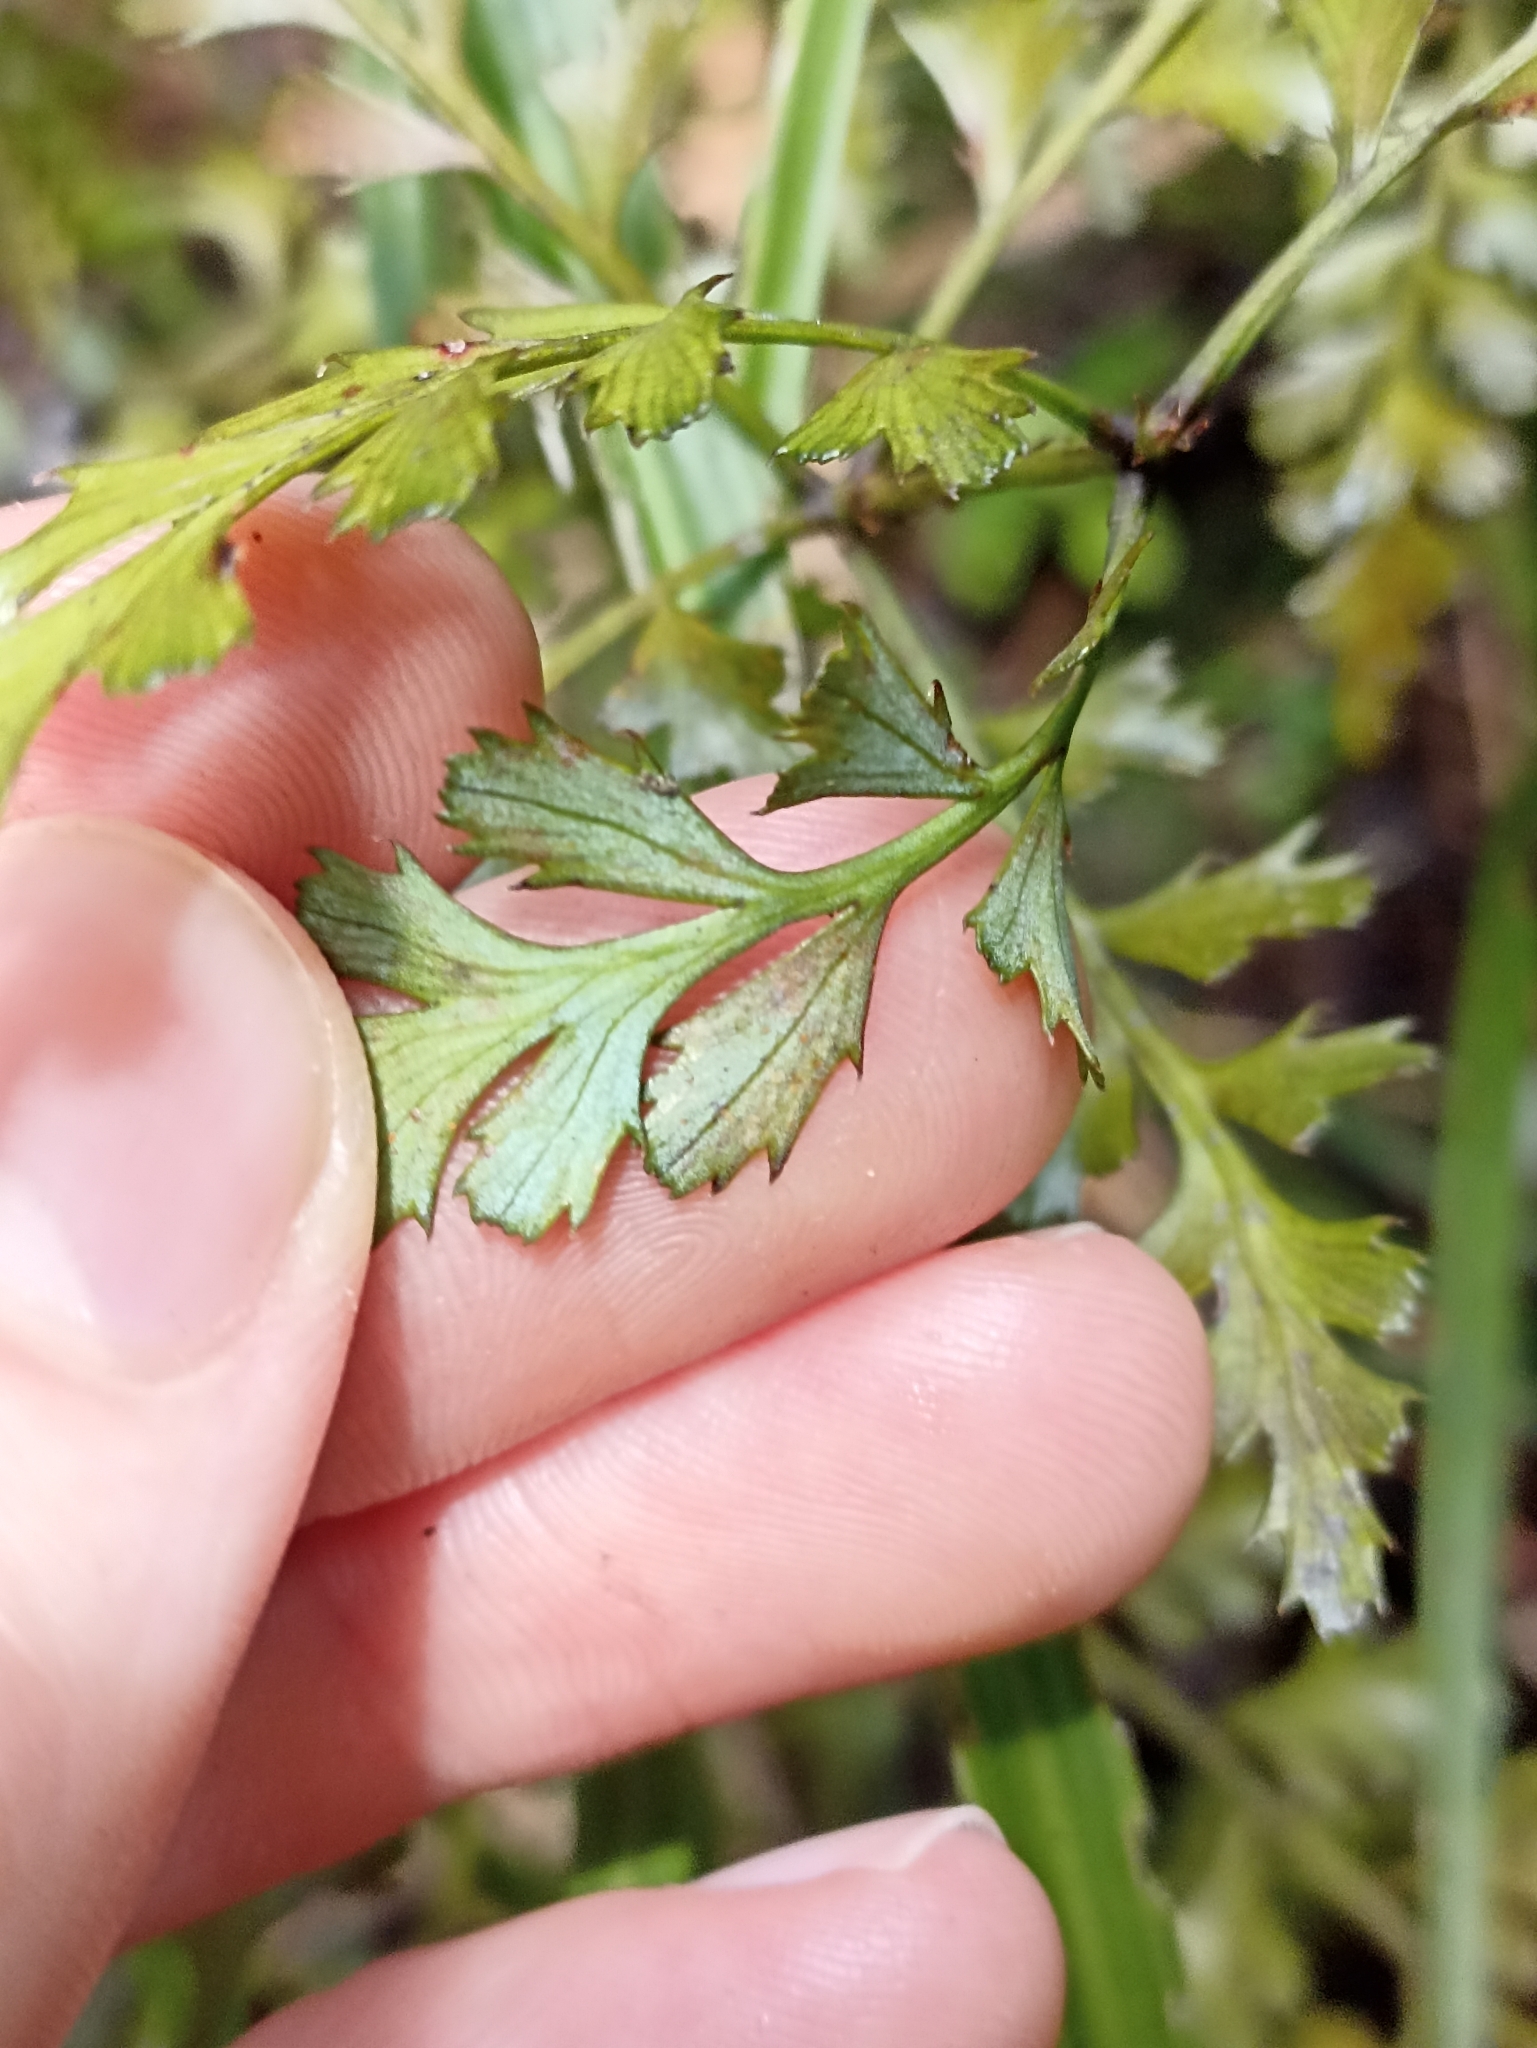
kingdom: Plantae
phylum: Tracheophyta
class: Pinopsida
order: Pinales
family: Phyllocladaceae
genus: Phyllocladus
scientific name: Phyllocladus trichomanoides
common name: Celery pine
